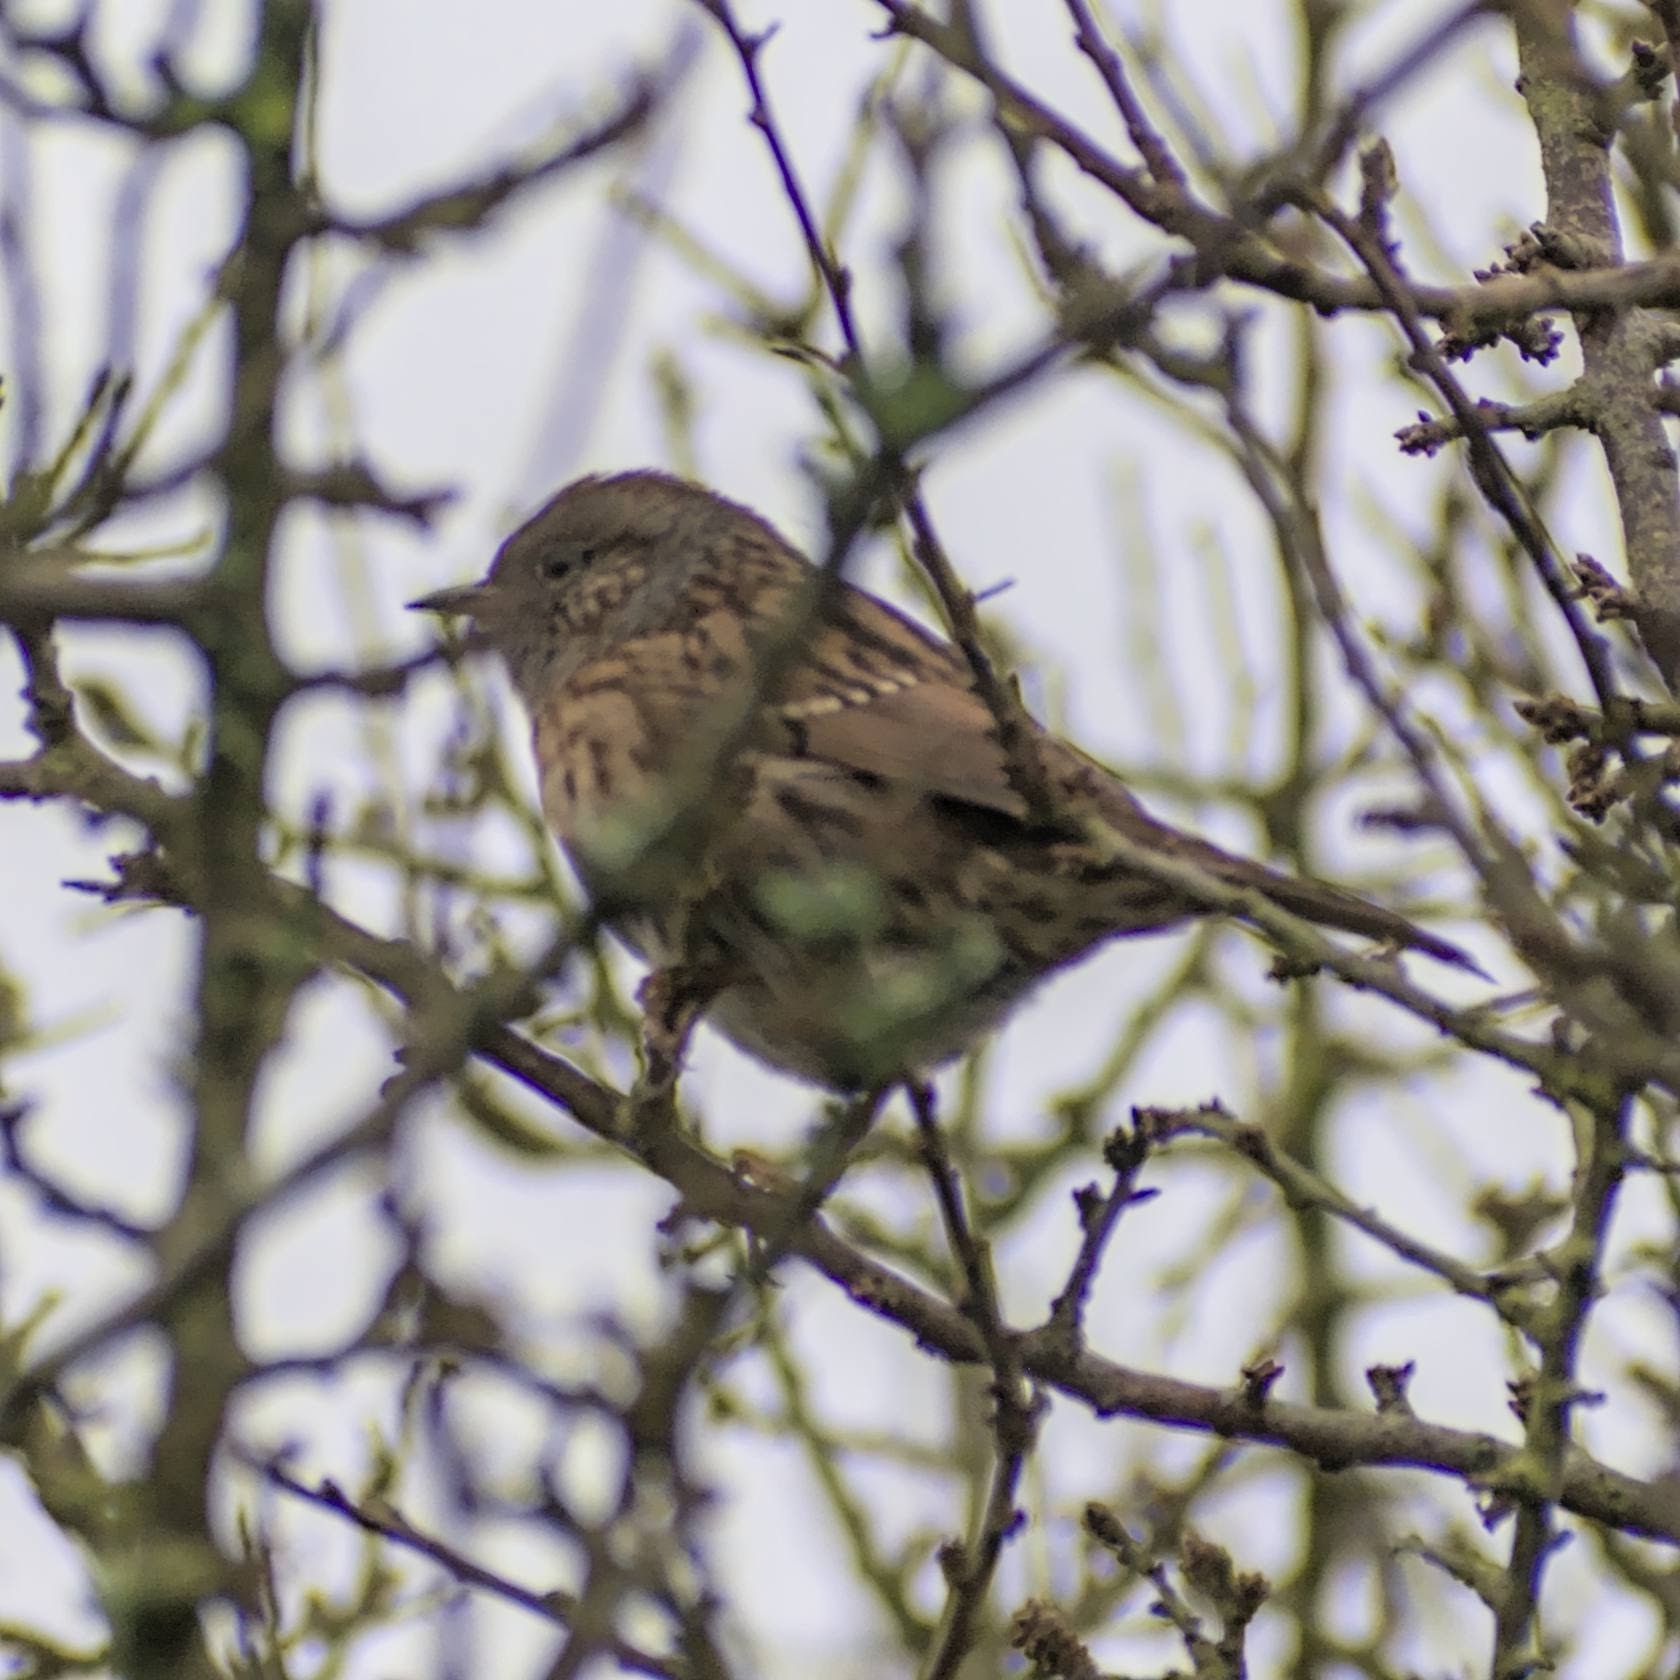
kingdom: Animalia
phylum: Chordata
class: Aves
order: Passeriformes
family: Prunellidae
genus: Prunella
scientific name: Prunella modularis
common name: Dunnock
